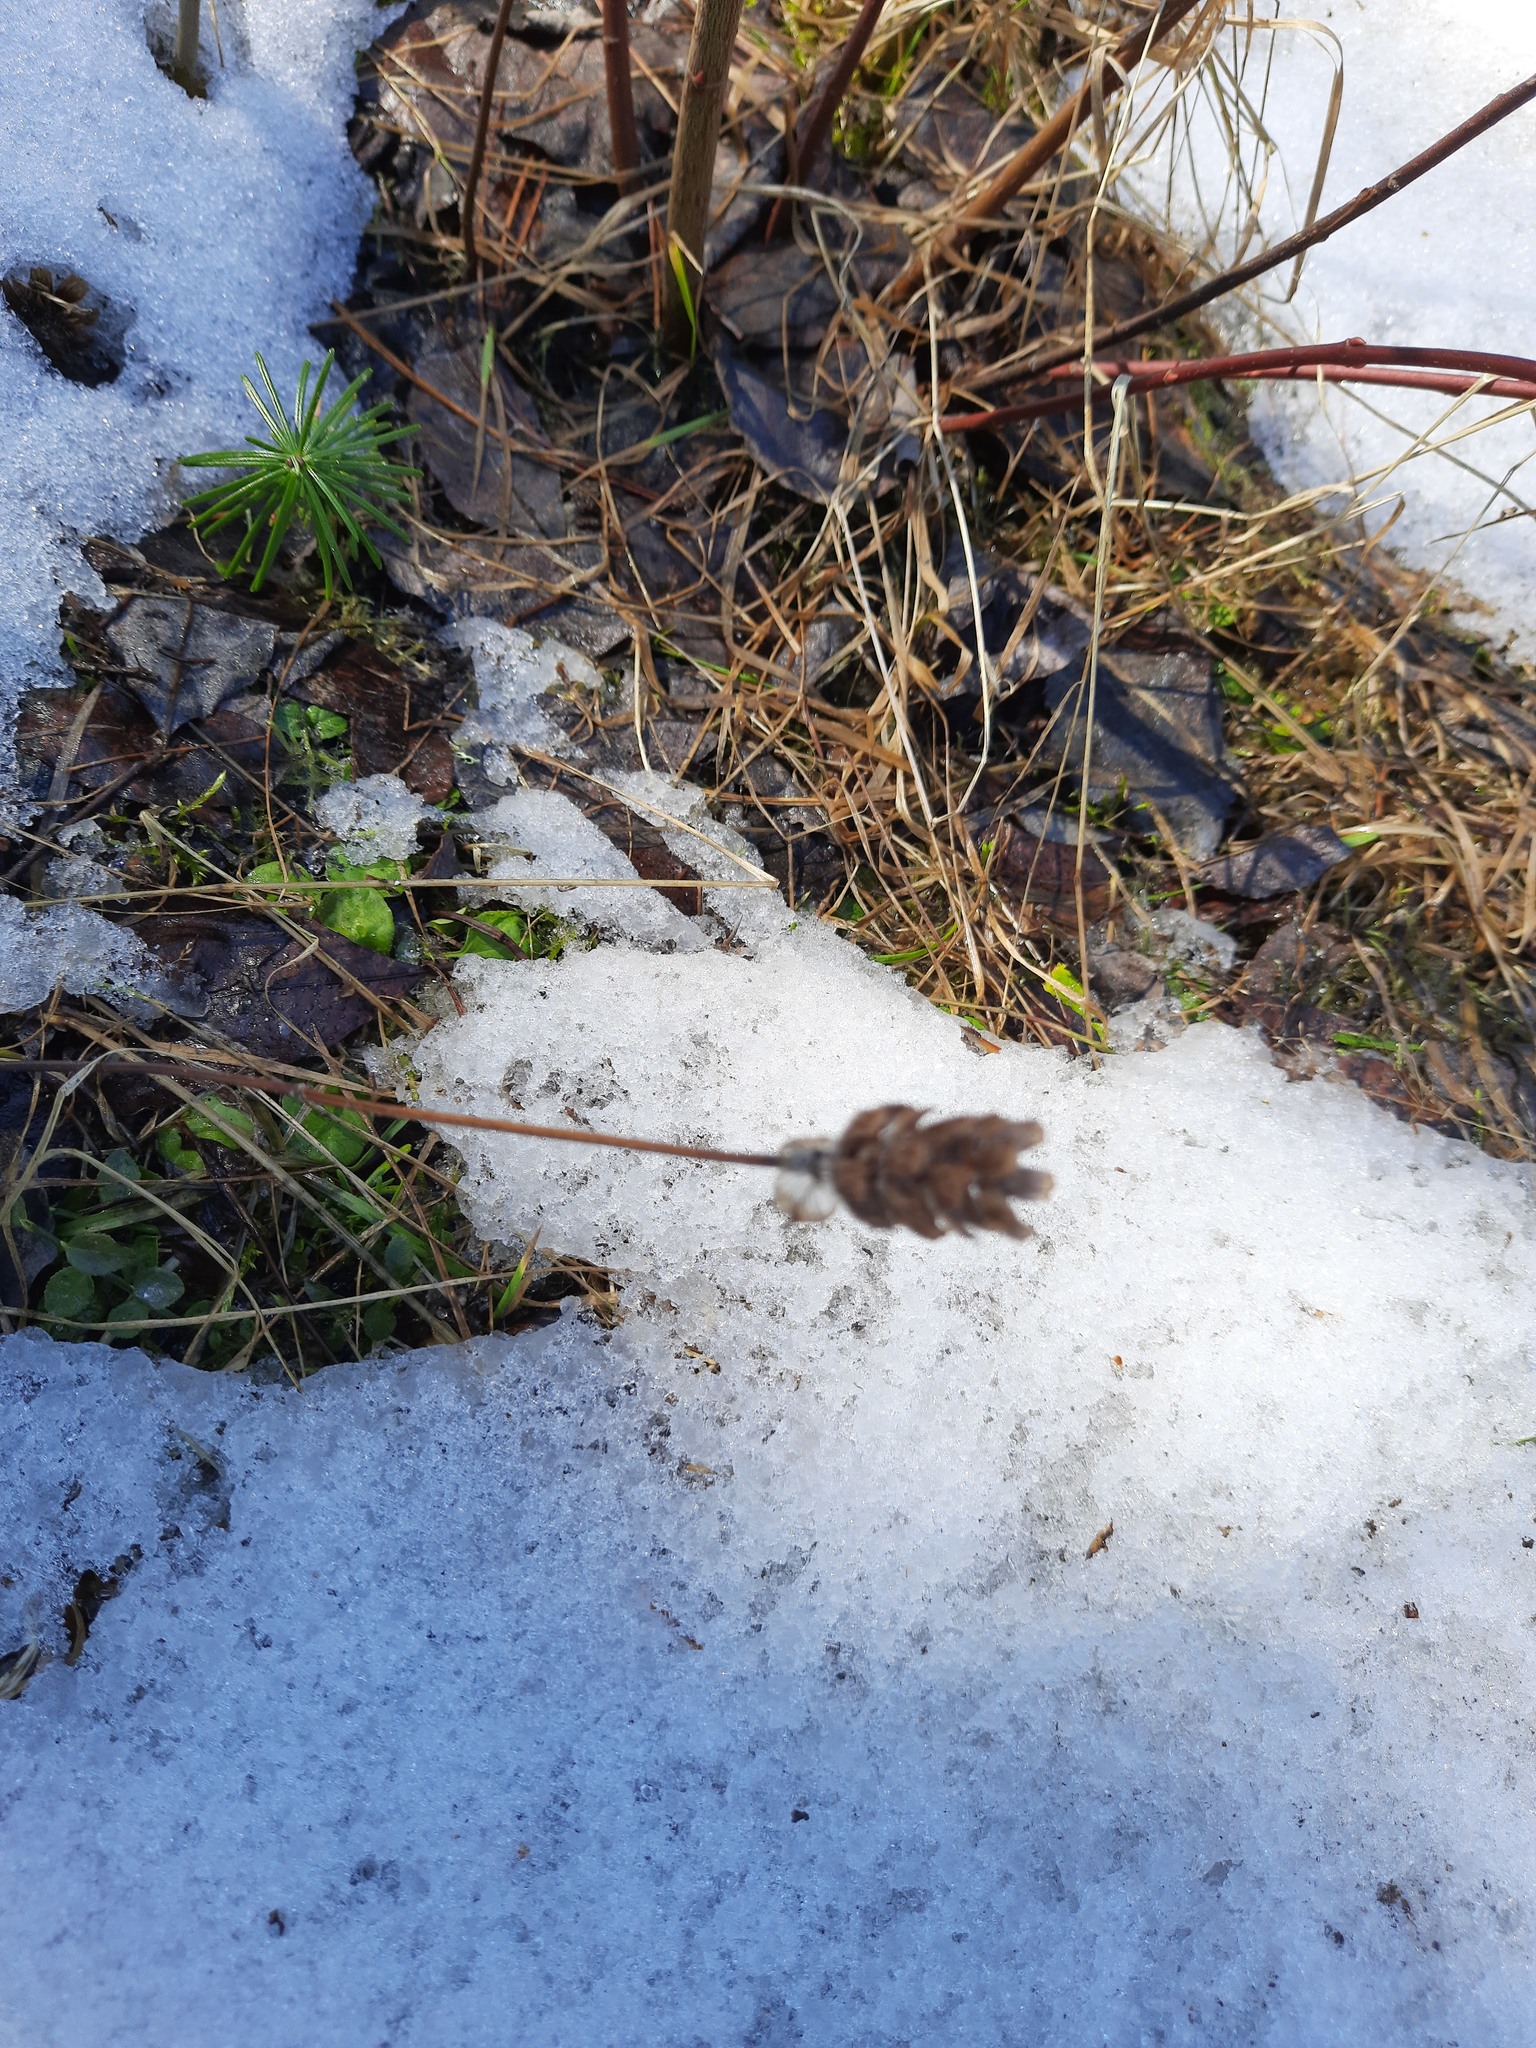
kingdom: Plantae
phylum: Tracheophyta
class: Magnoliopsida
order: Lamiales
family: Lamiaceae
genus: Prunella
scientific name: Prunella vulgaris
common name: Heal-all
